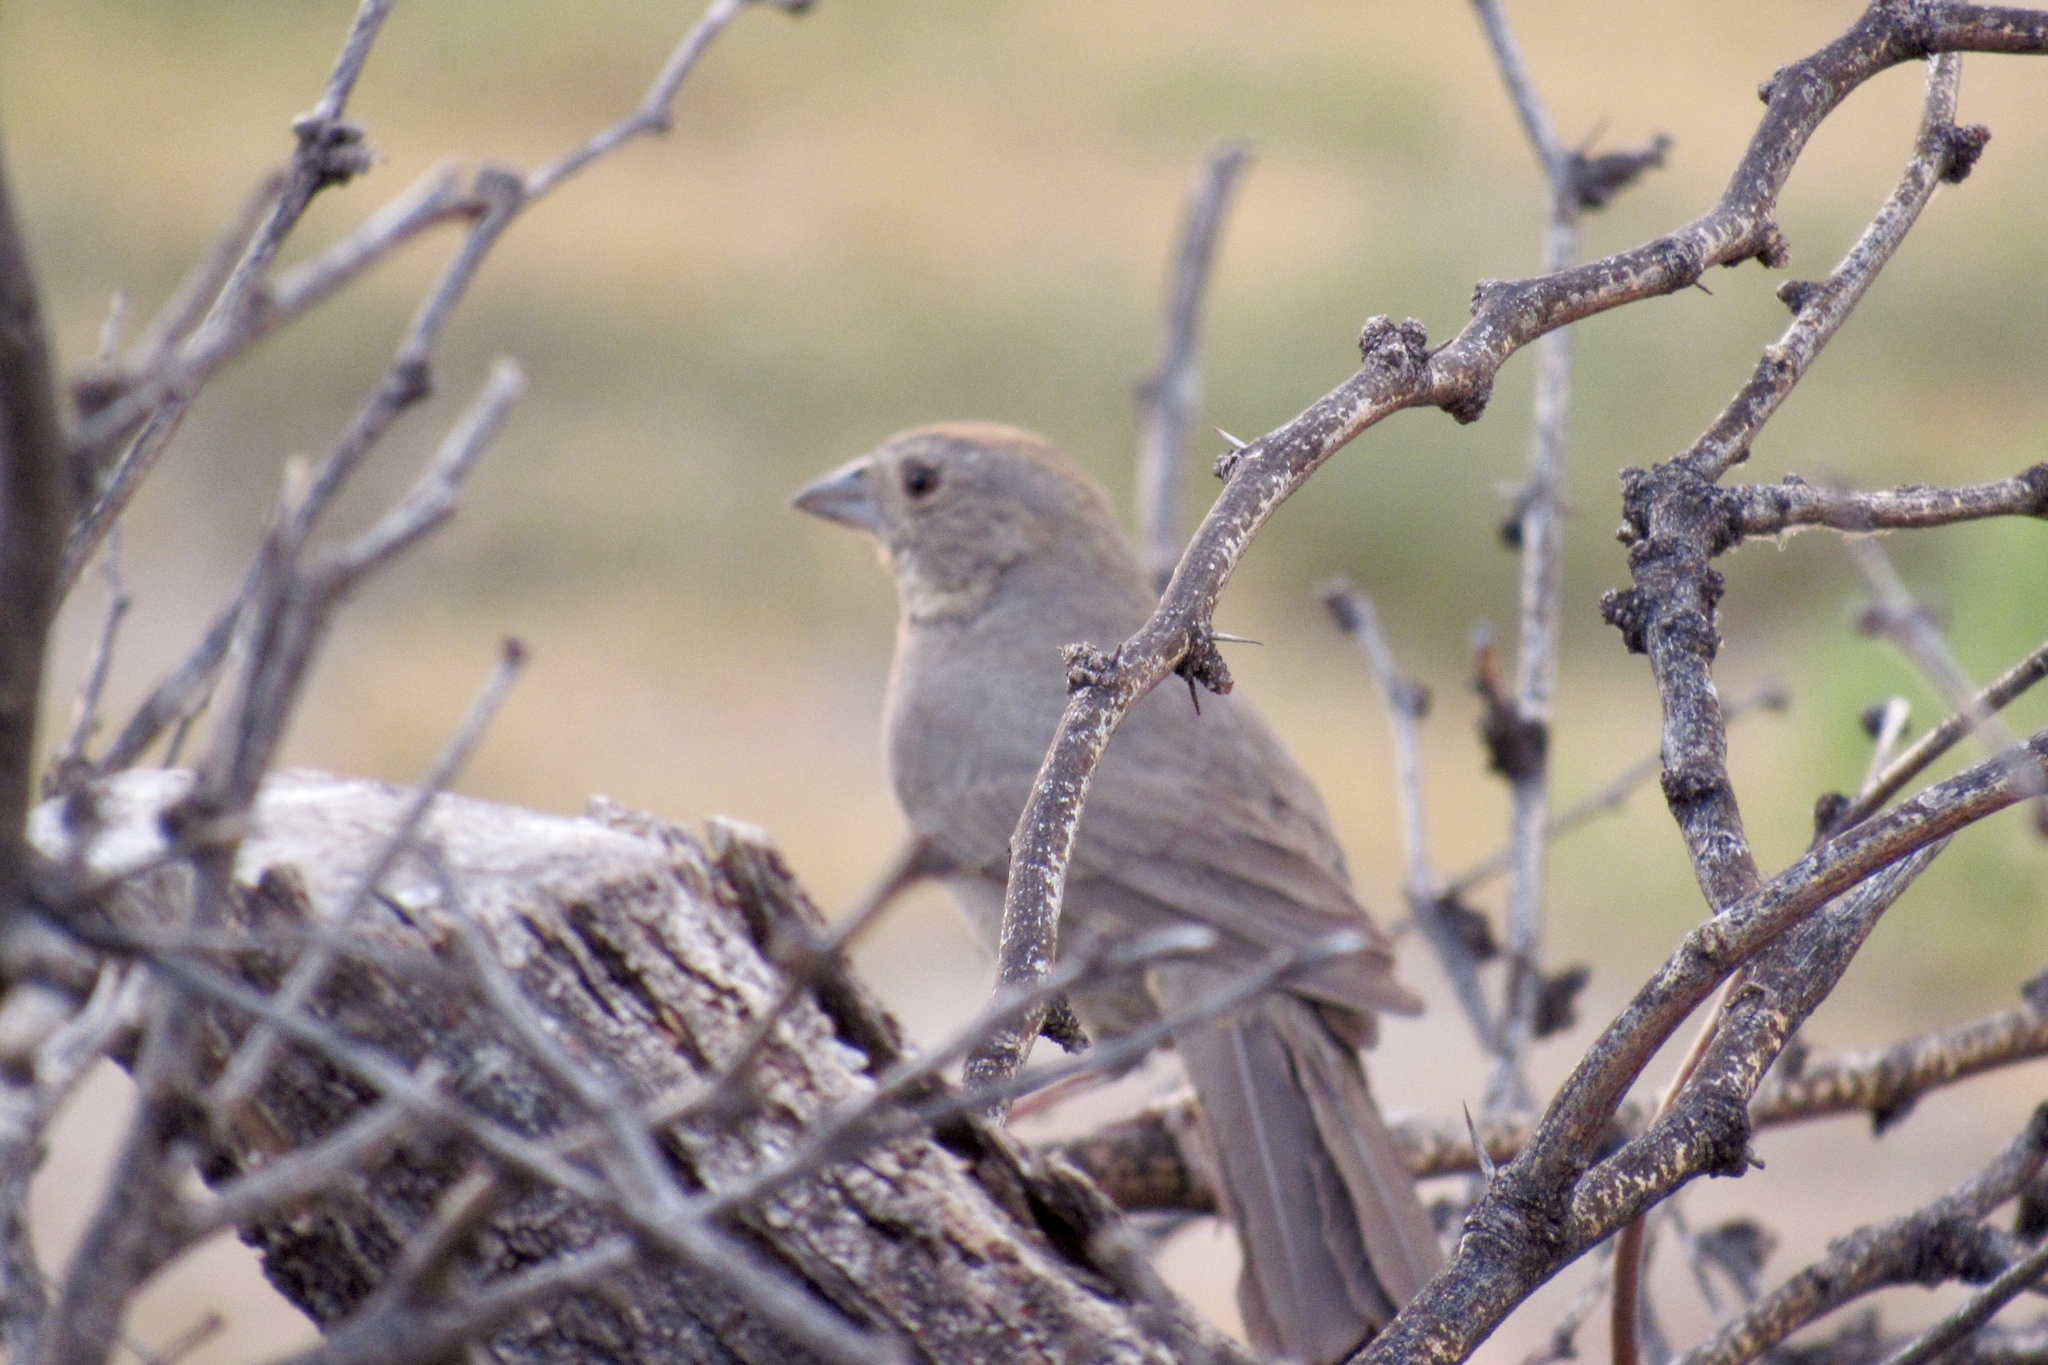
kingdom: Animalia
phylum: Chordata
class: Aves
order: Passeriformes
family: Passerellidae
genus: Melozone
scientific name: Melozone fusca
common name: Canyon towhee
